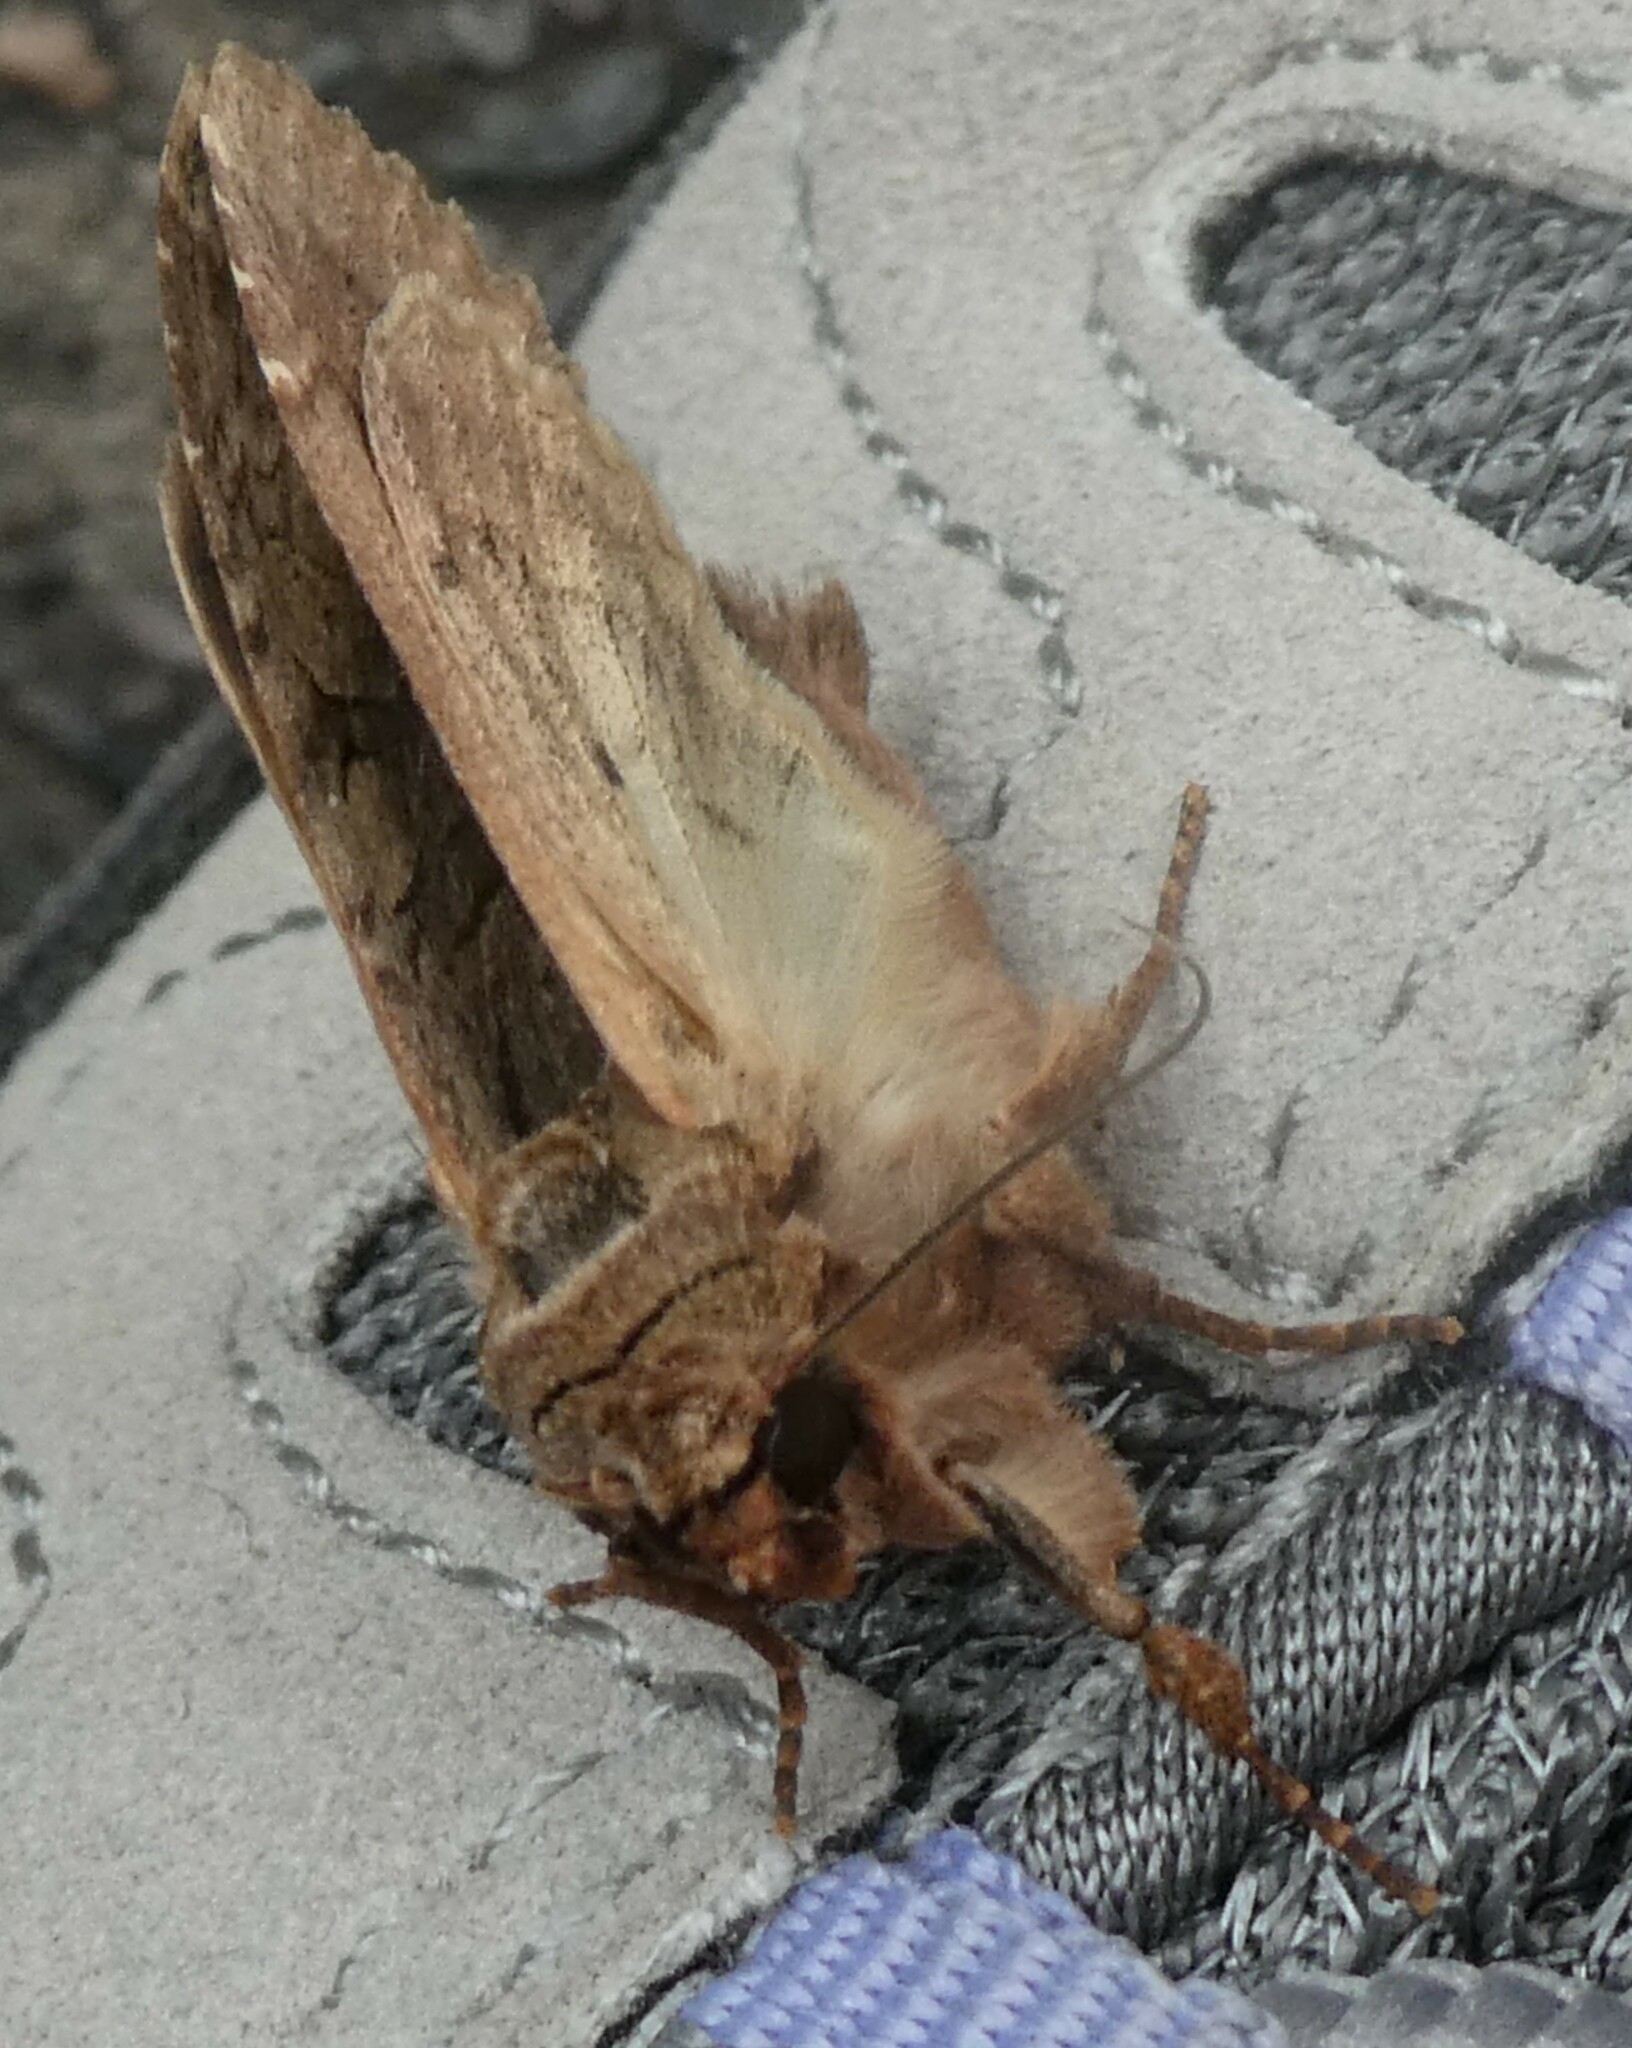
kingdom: Animalia
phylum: Arthropoda
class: Insecta
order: Lepidoptera
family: Noctuidae
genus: Apamea
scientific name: Apamea monoglypha
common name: Dark arches
